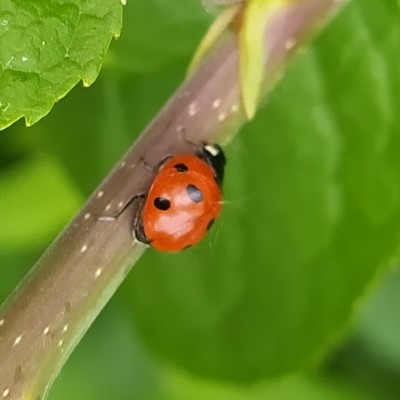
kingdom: Animalia
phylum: Arthropoda
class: Insecta
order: Coleoptera
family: Coccinellidae
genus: Coccinella
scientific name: Coccinella septempunctata
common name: Sevenspotted lady beetle
